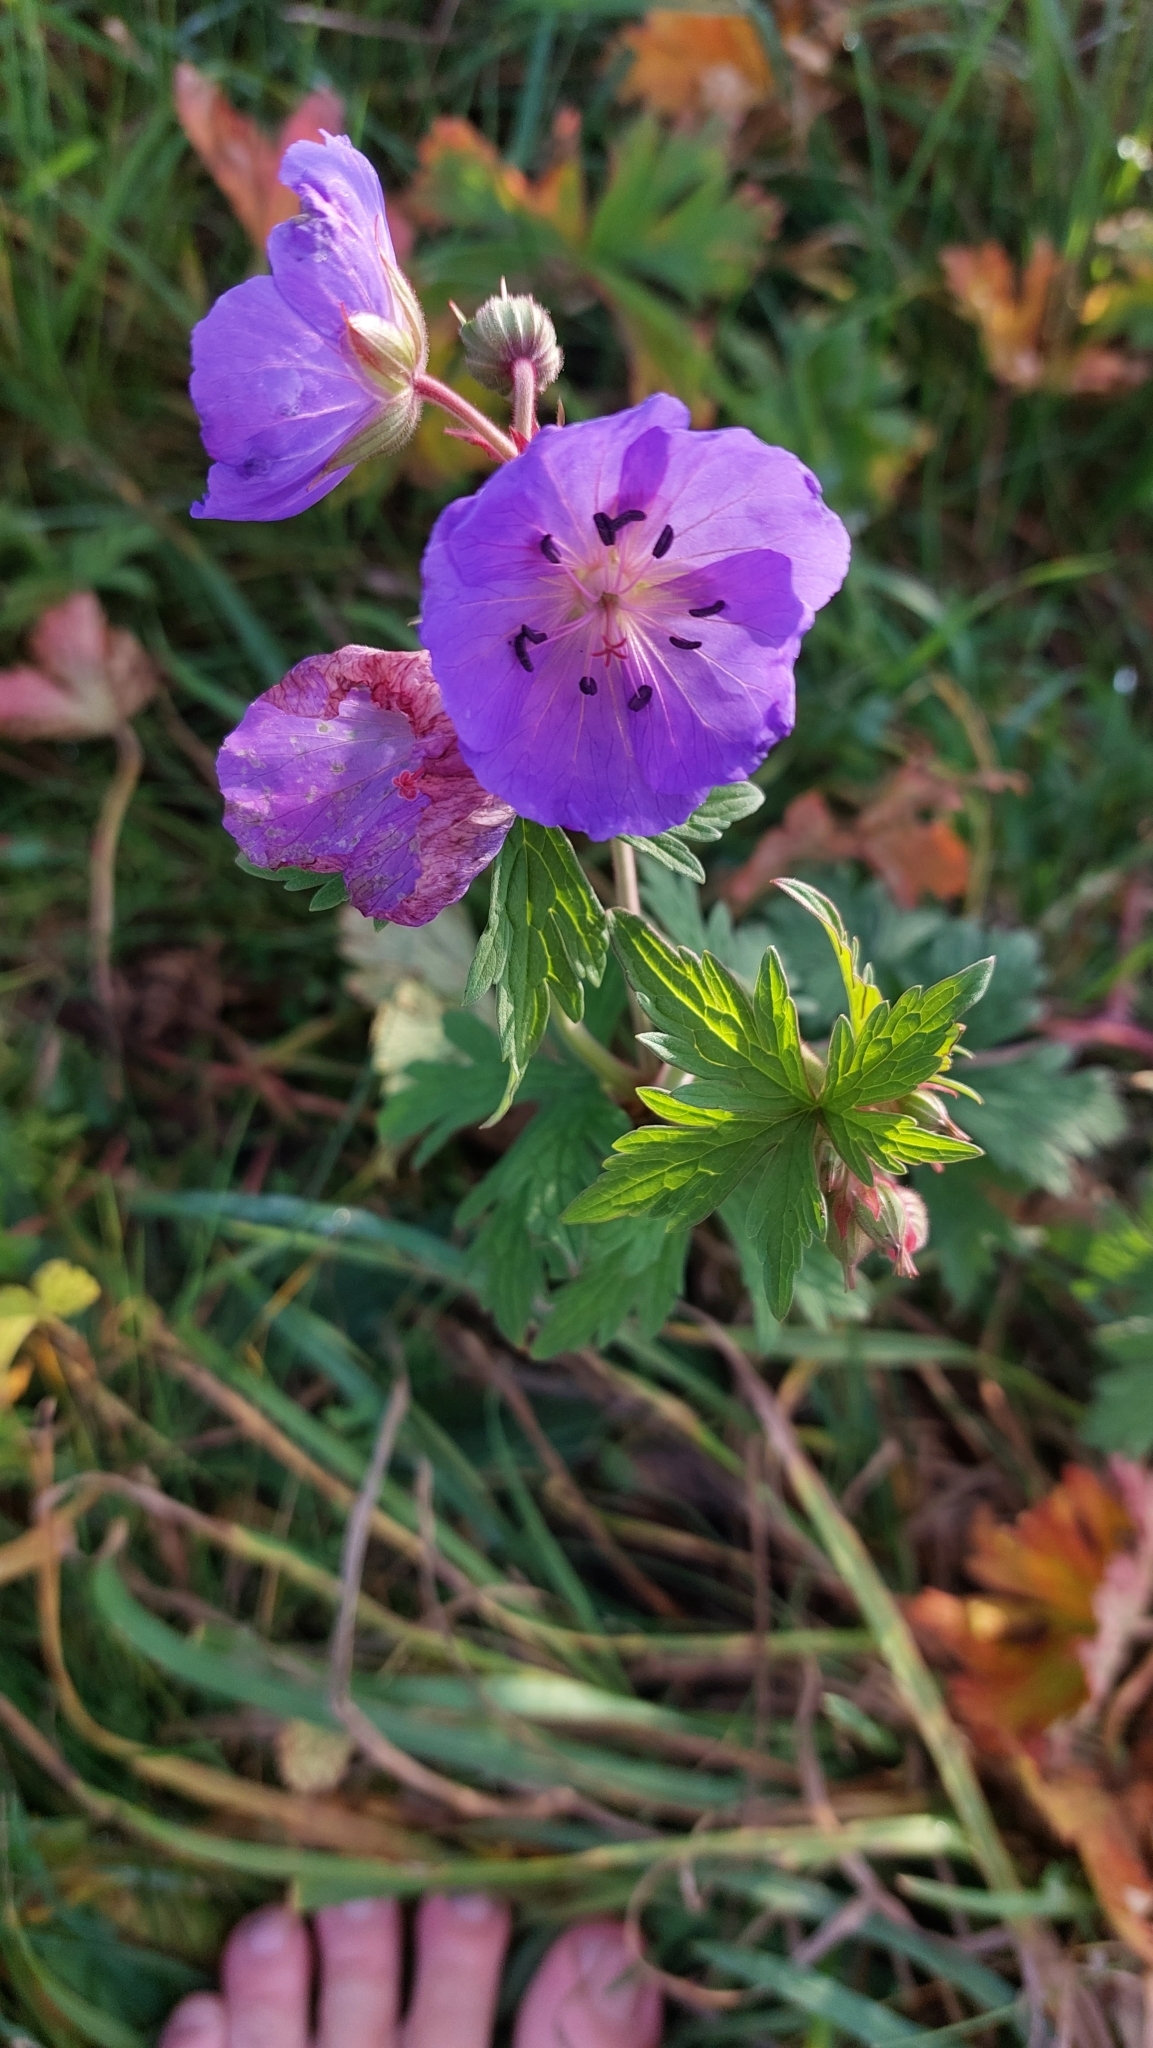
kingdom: Plantae
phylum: Tracheophyta
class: Magnoliopsida
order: Geraniales
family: Geraniaceae
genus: Geranium
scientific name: Geranium pratense
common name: Meadow crane's-bill
